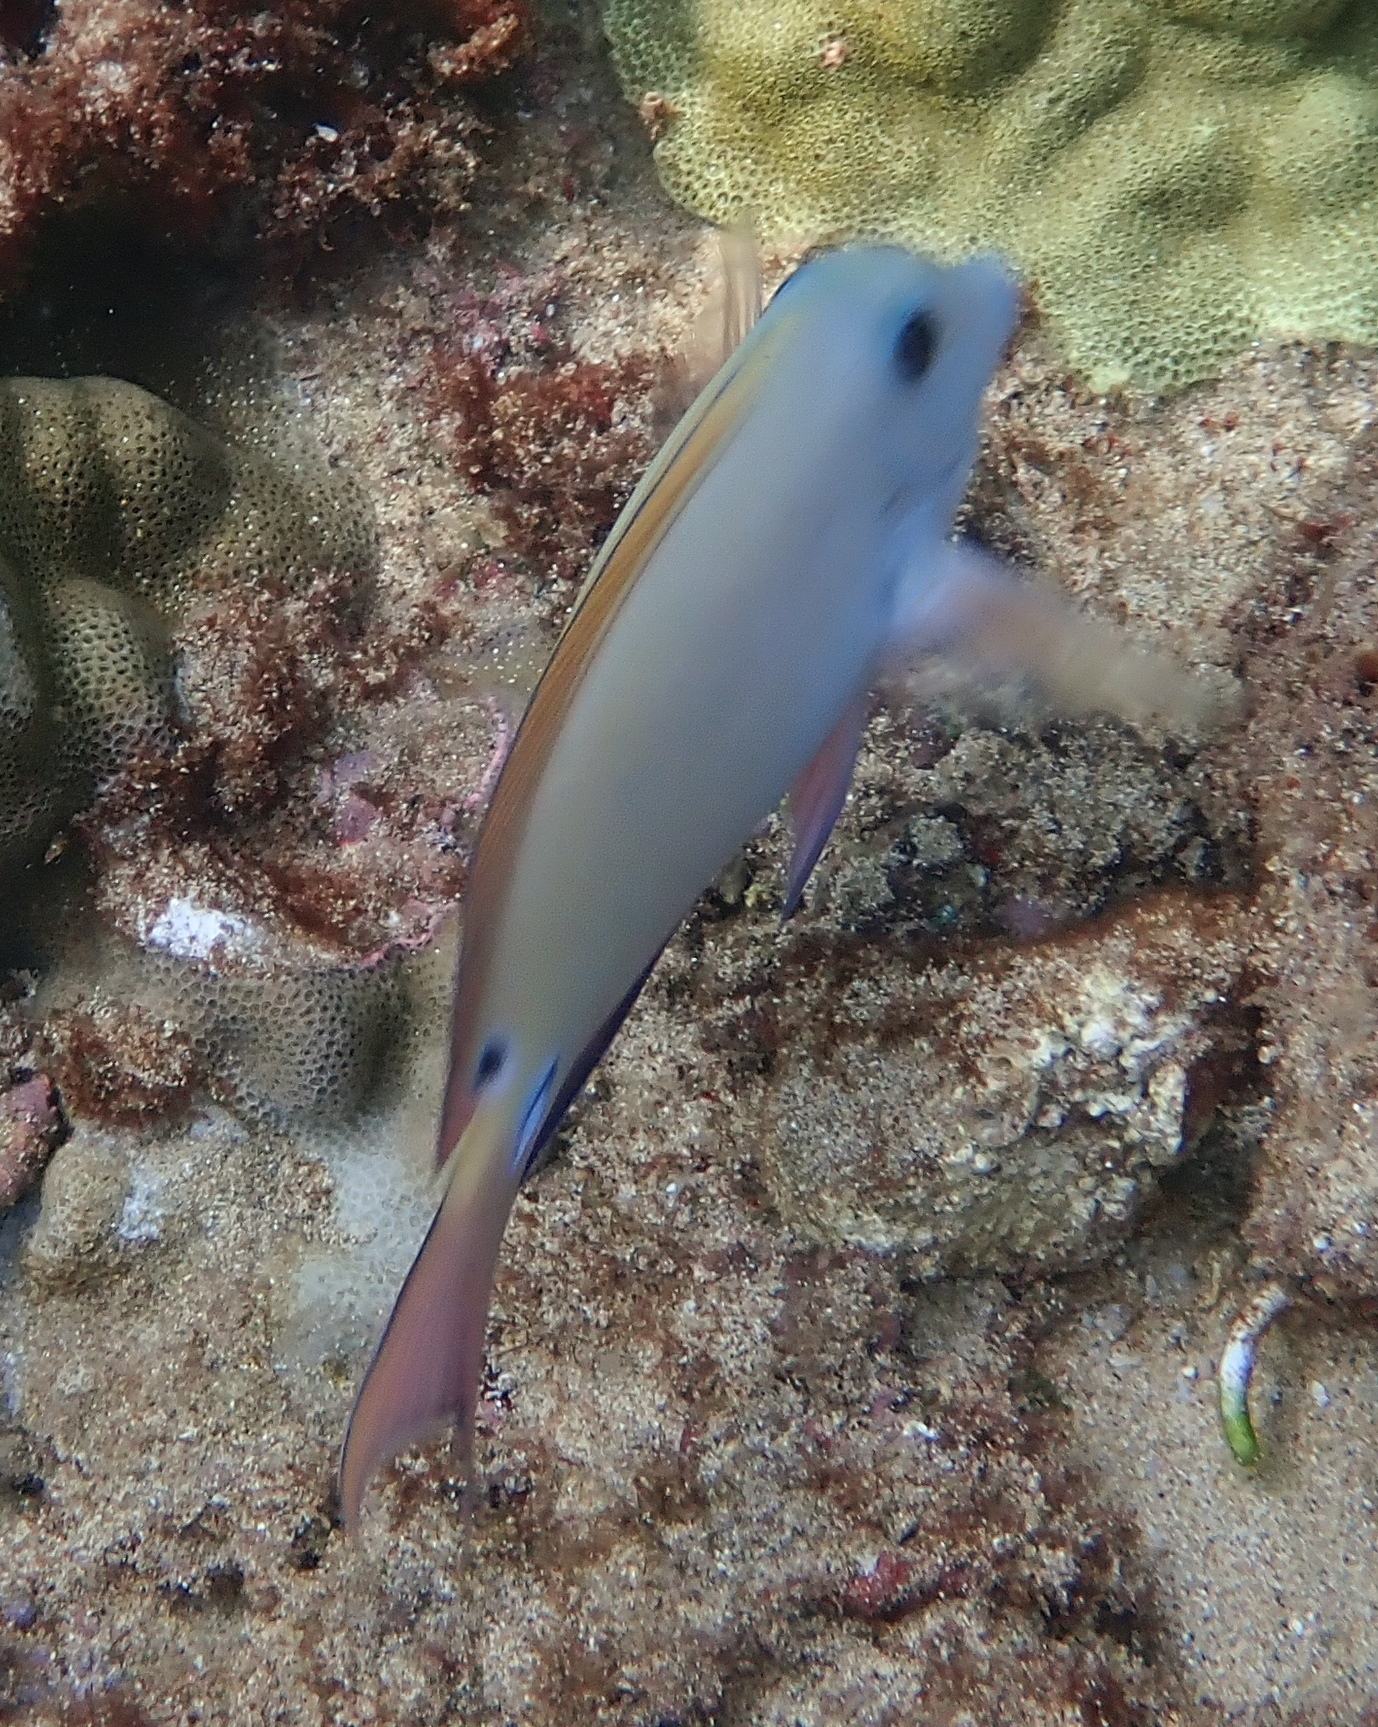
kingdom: Animalia
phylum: Chordata
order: Perciformes
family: Acanthuridae
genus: Acanthurus
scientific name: Acanthurus nigrofuscus
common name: Blackspot surgeonfish
